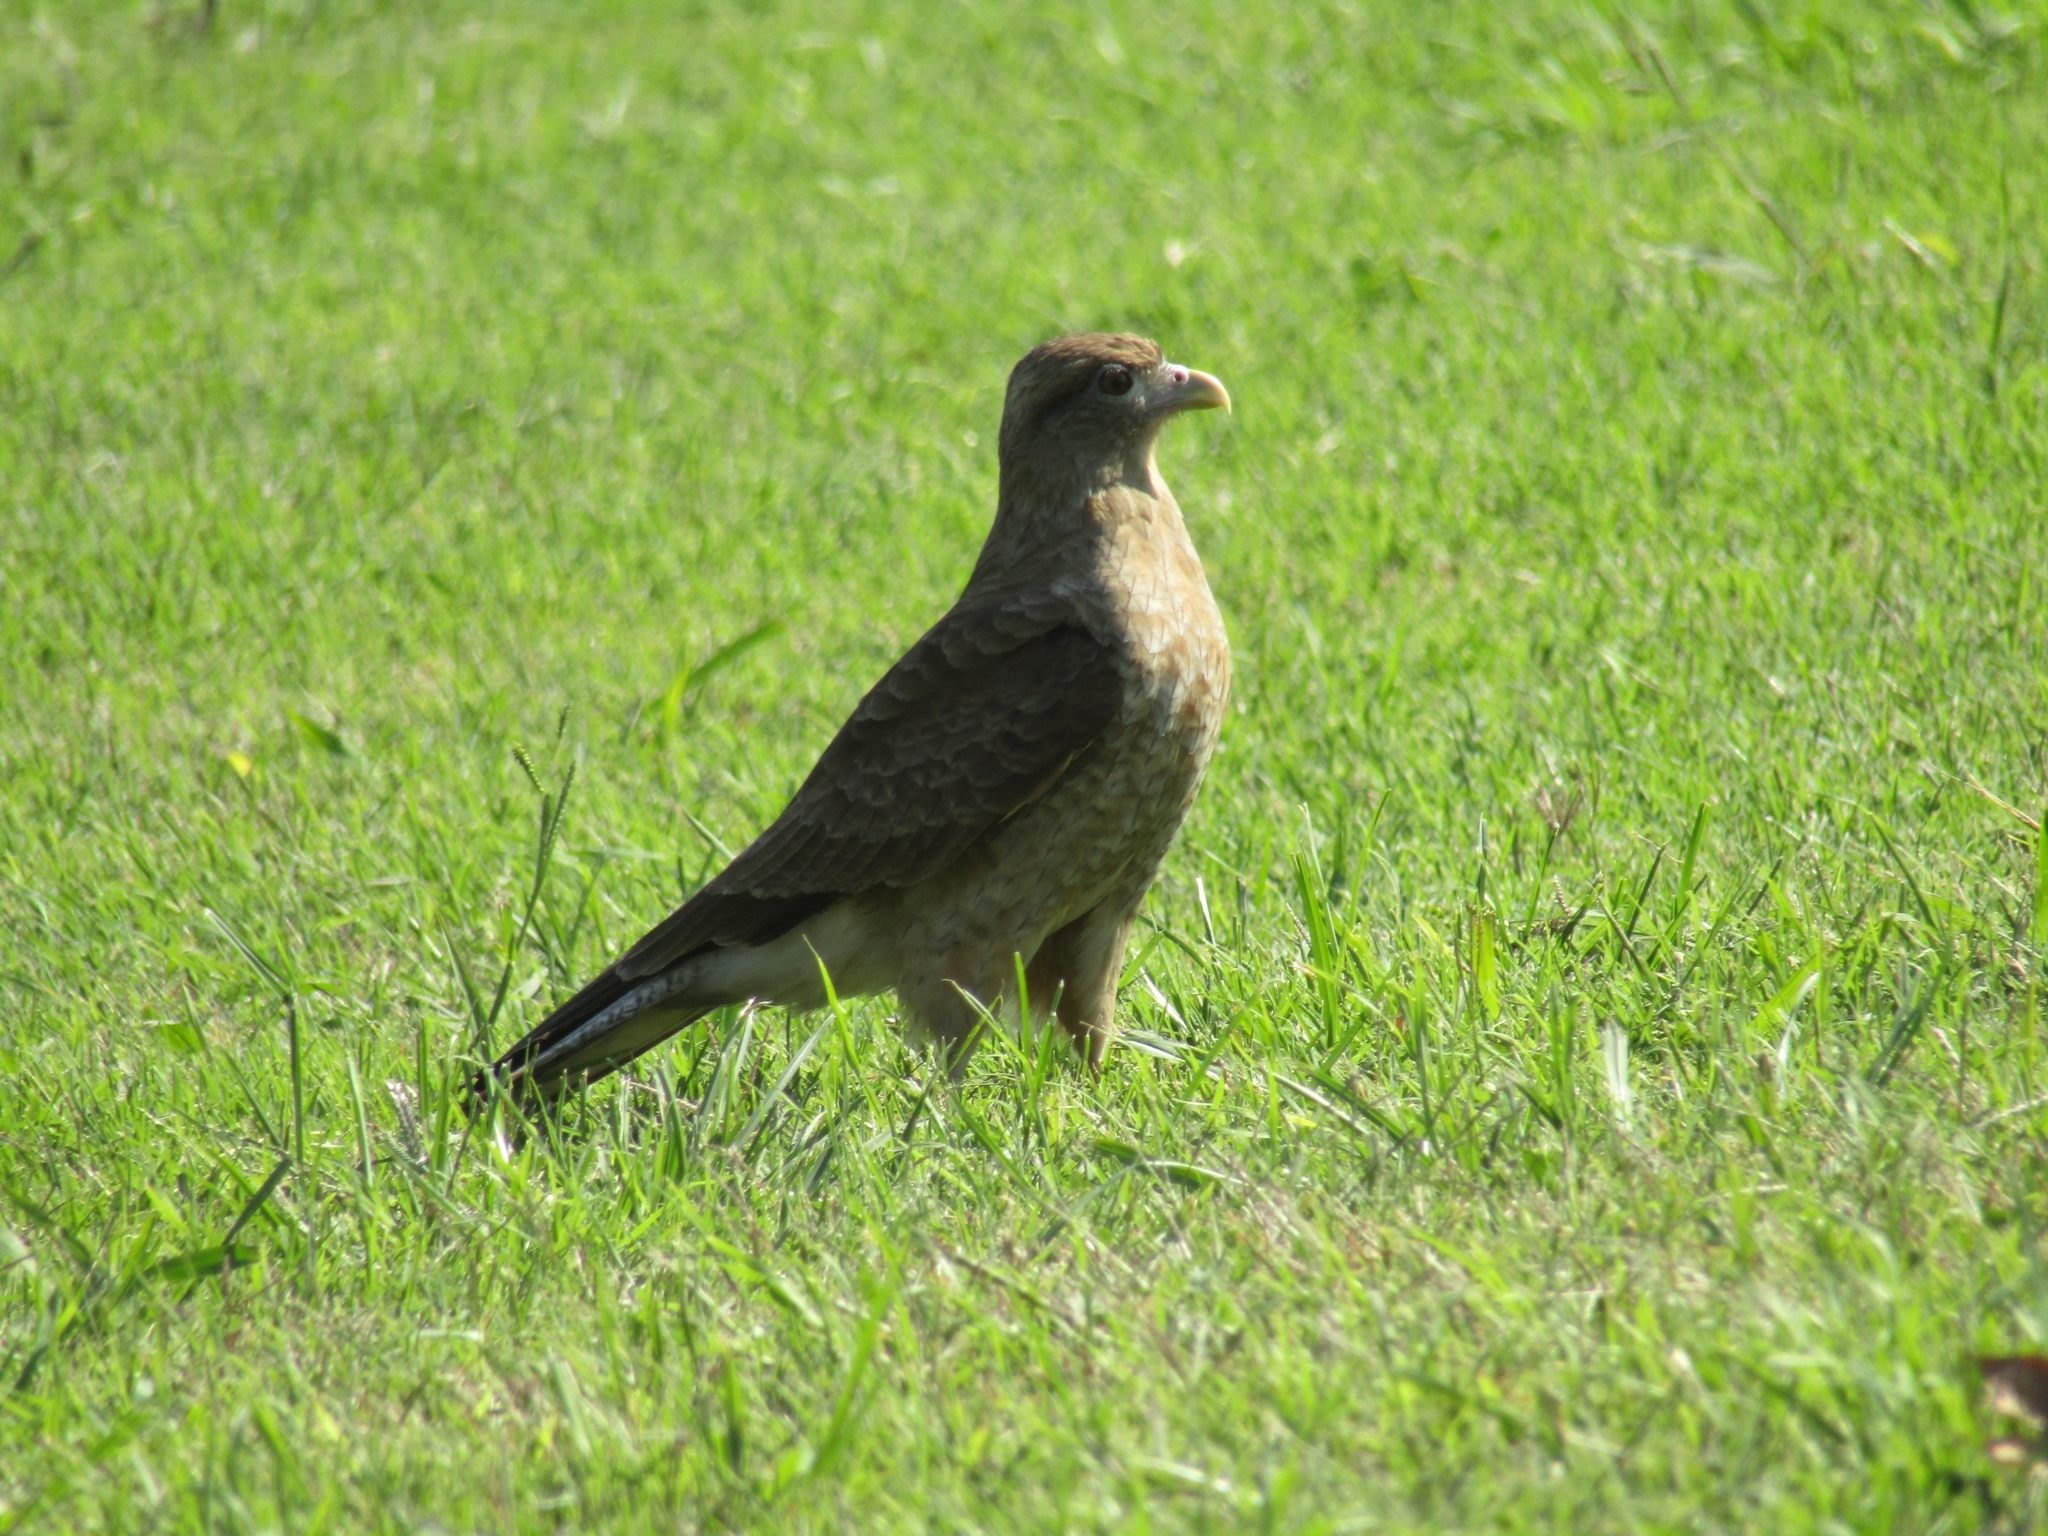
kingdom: Animalia
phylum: Chordata
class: Aves
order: Falconiformes
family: Falconidae
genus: Daptrius
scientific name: Daptrius
